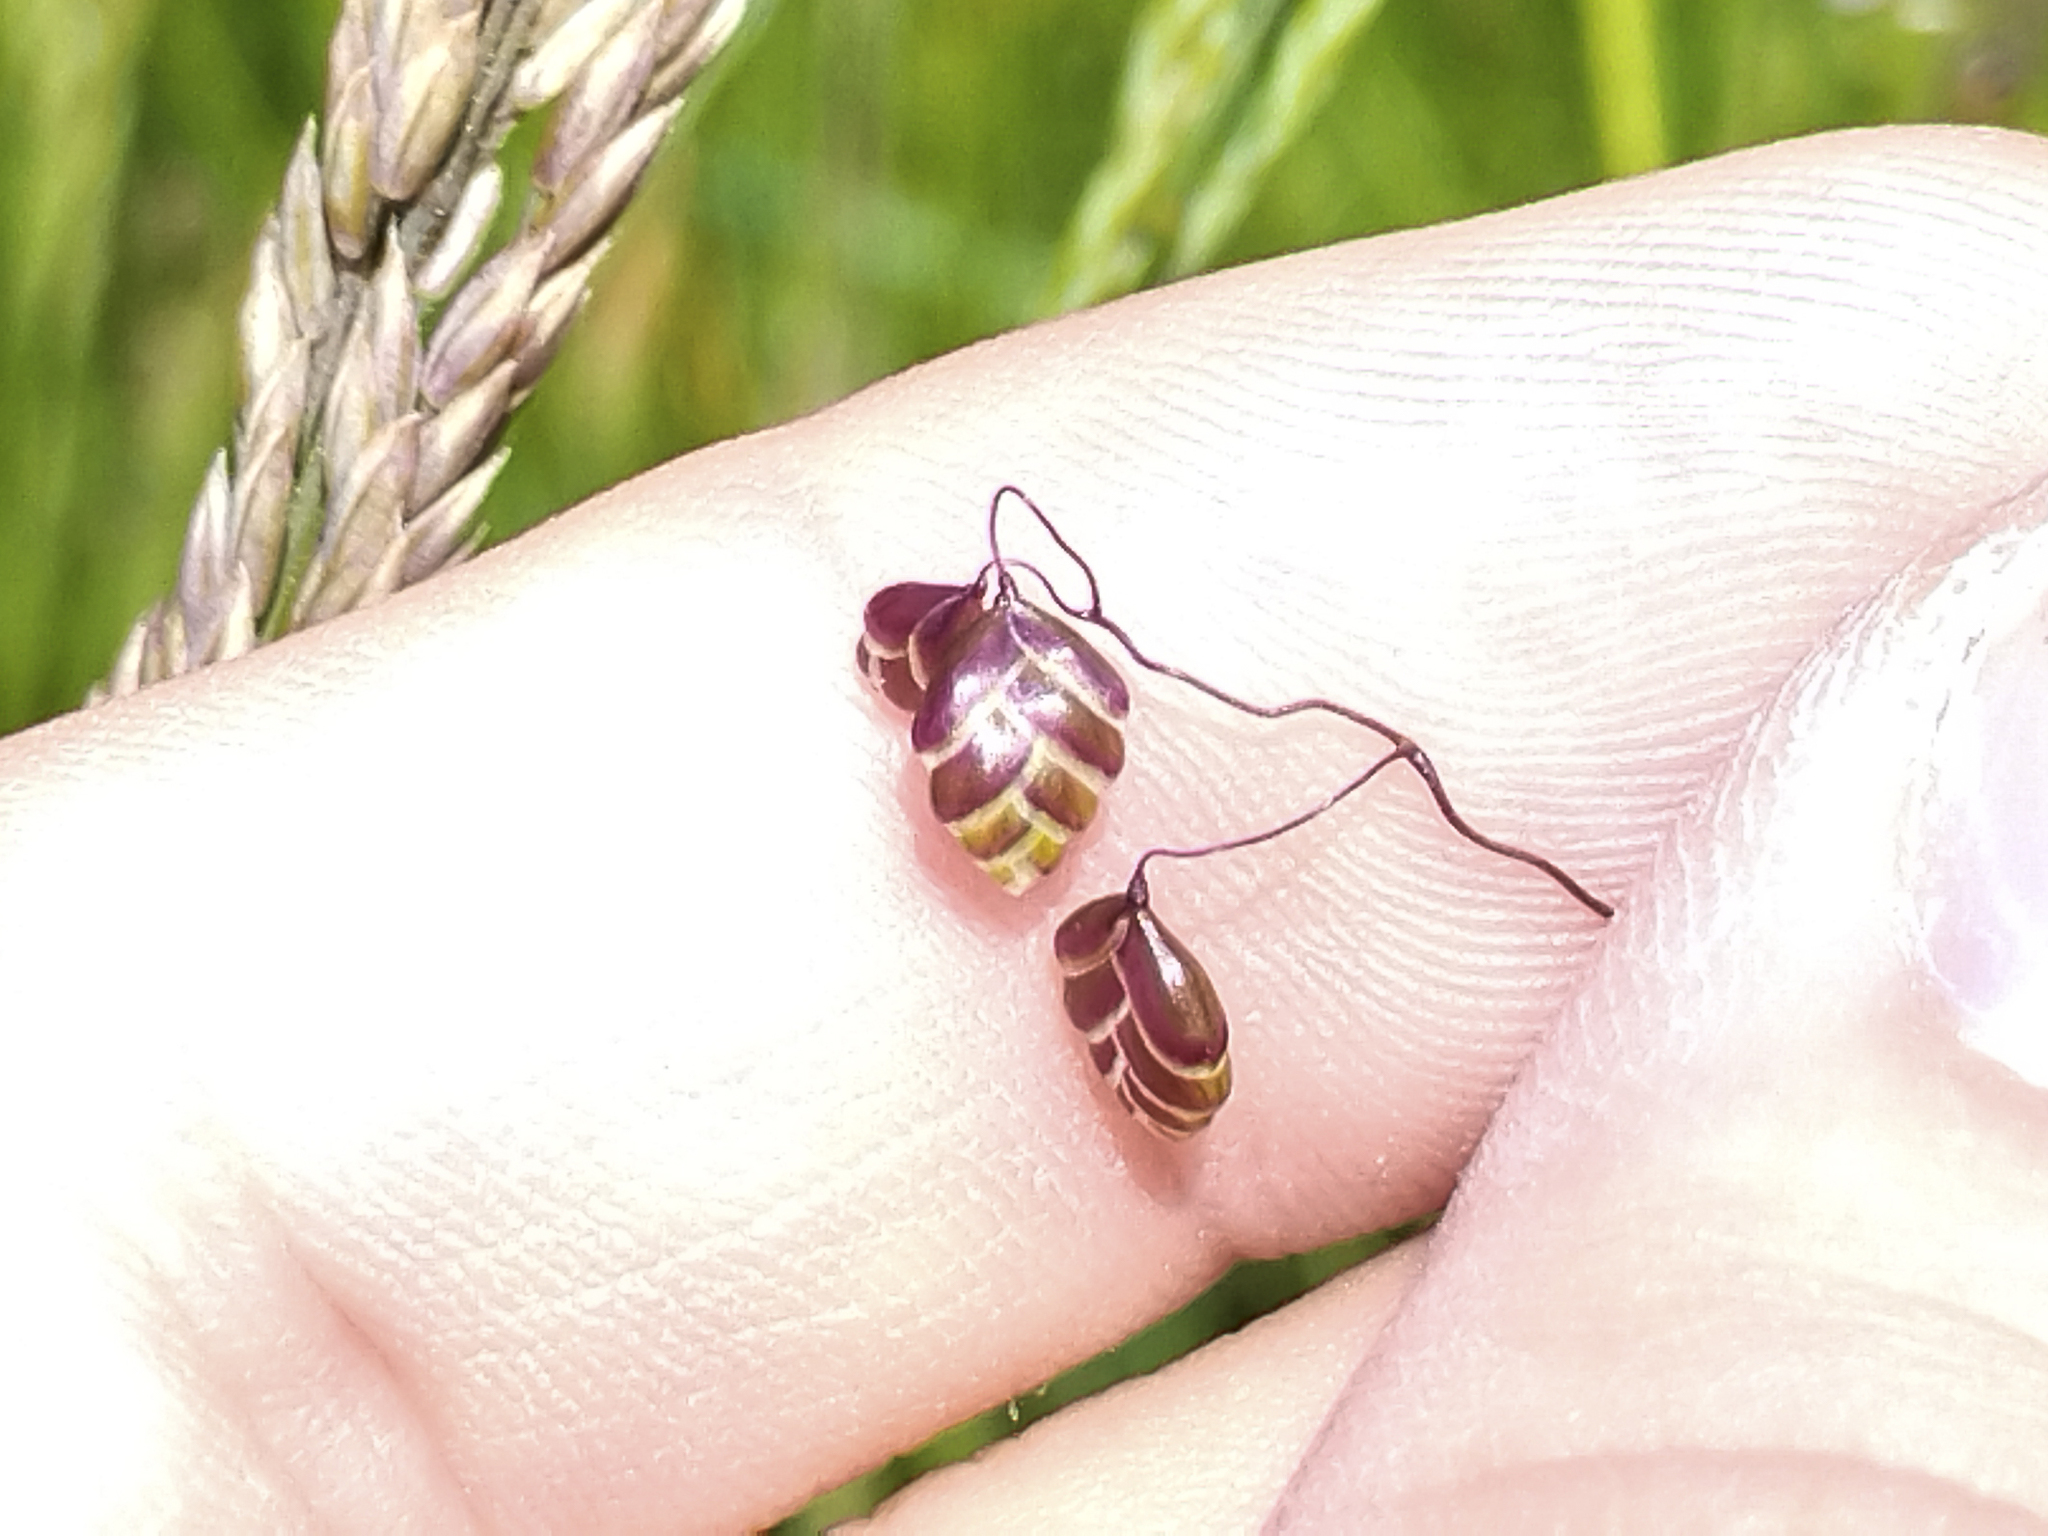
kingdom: Plantae
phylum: Tracheophyta
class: Liliopsida
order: Poales
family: Poaceae
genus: Briza
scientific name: Briza media
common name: Quaking grass
